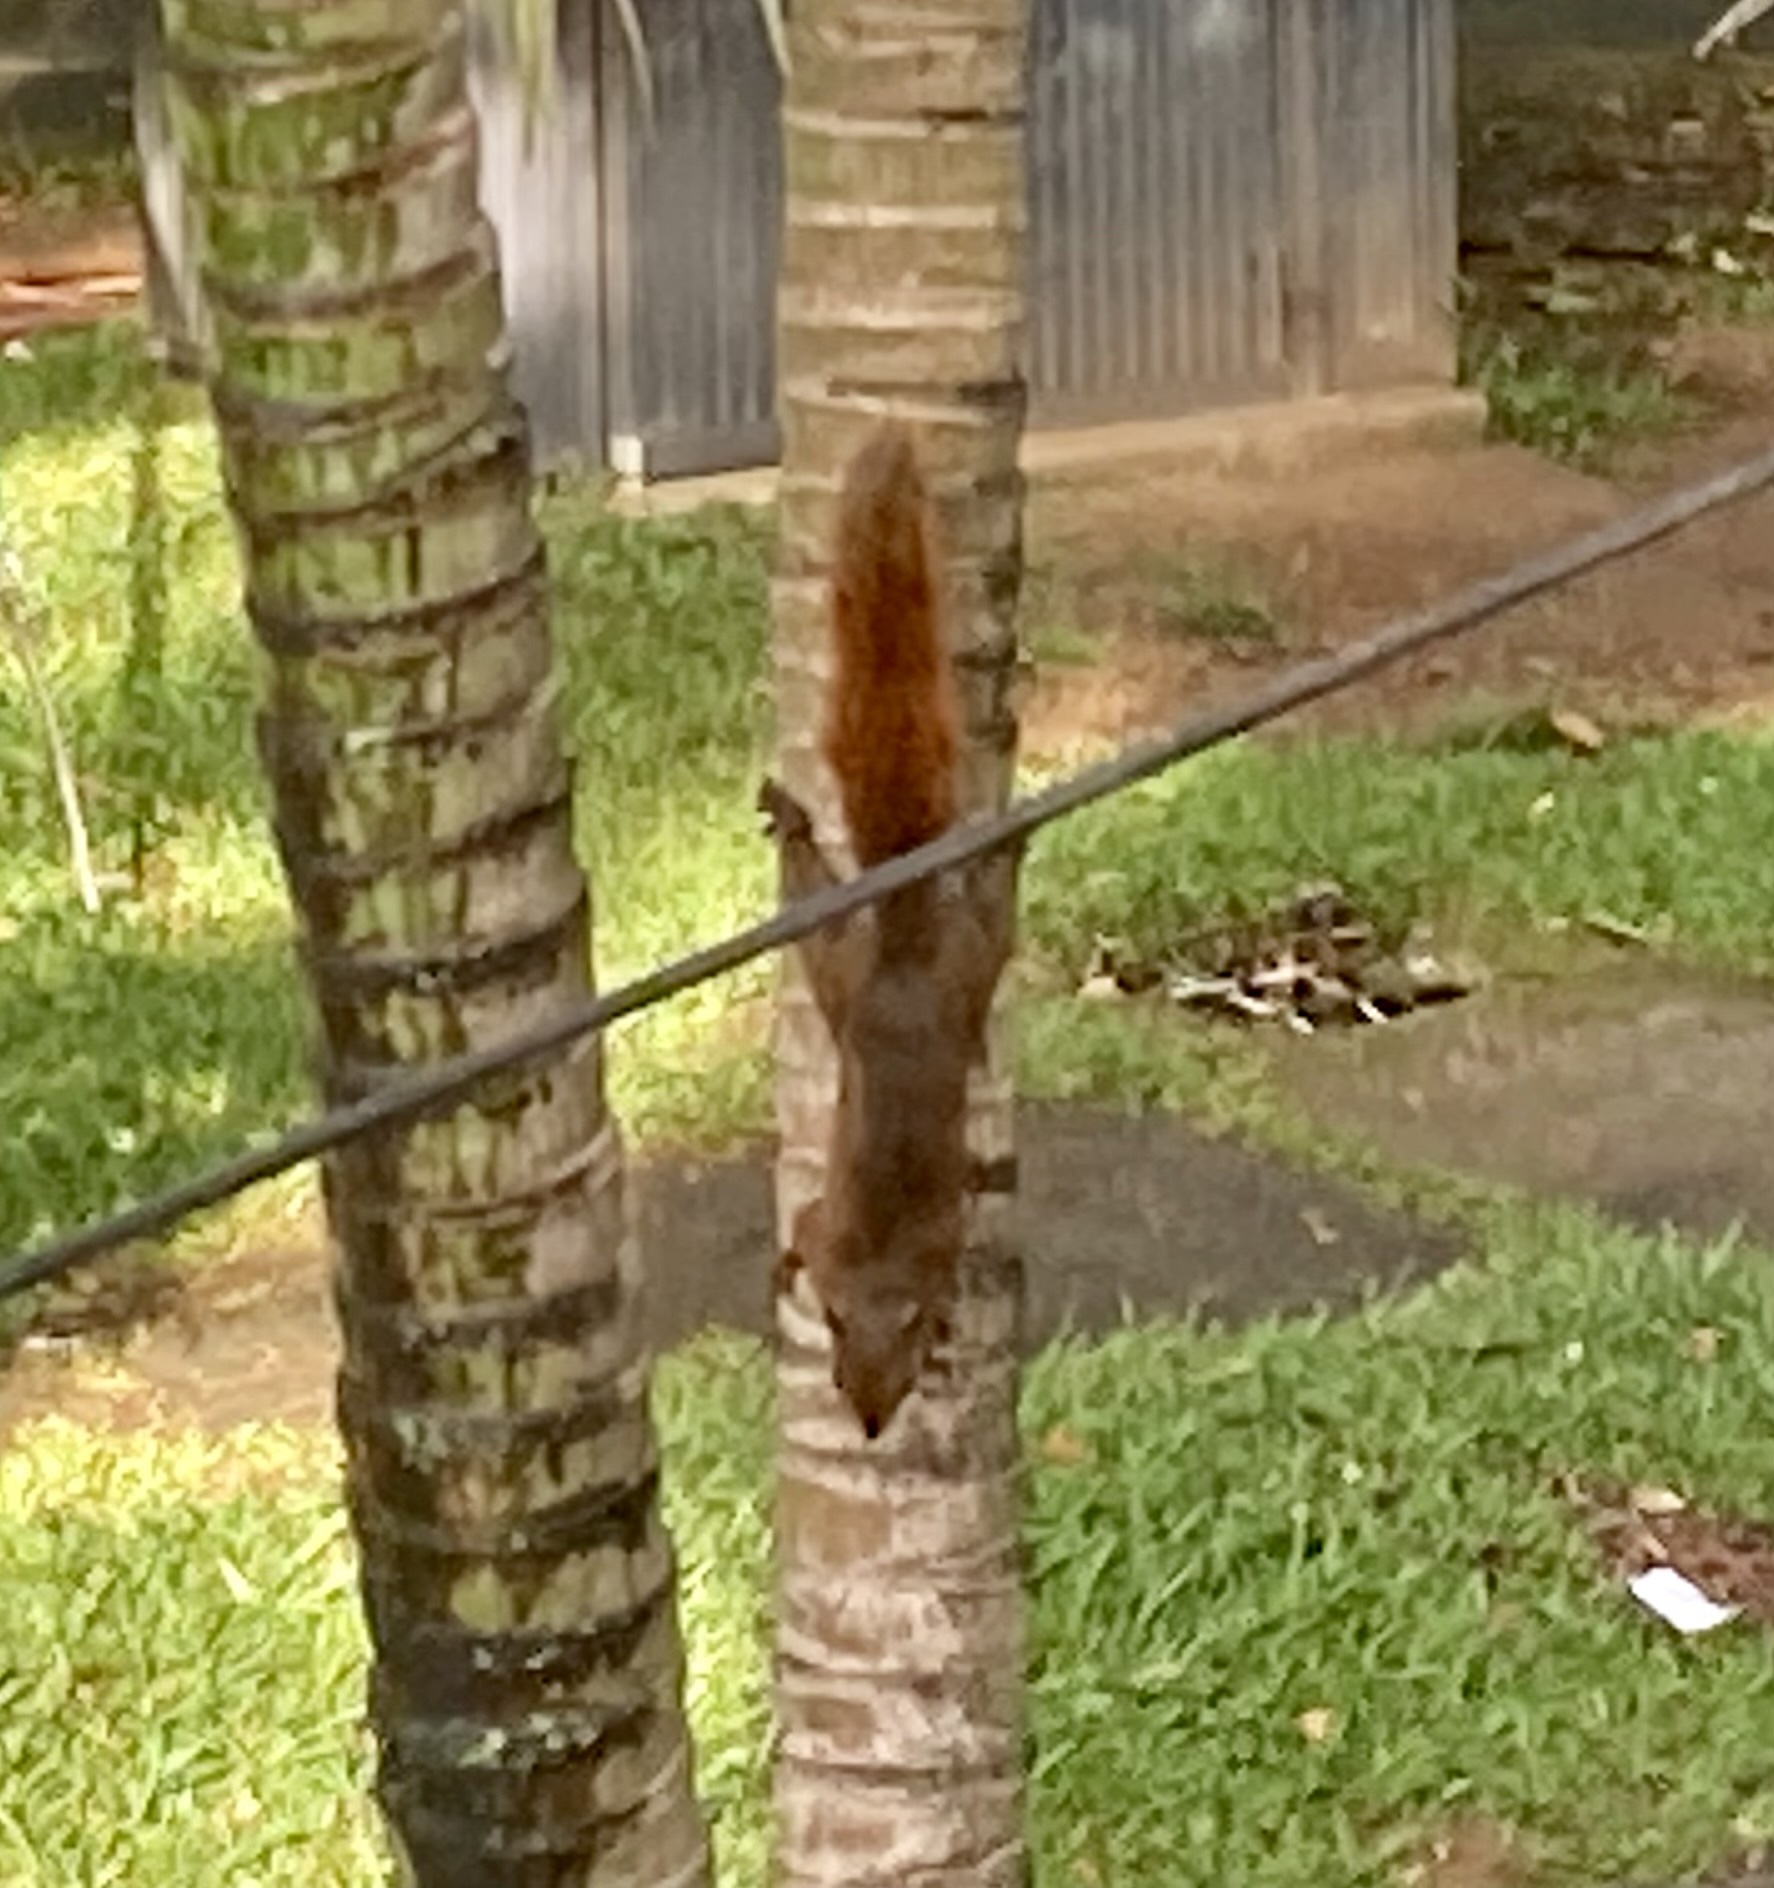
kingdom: Animalia
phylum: Chordata
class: Mammalia
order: Rodentia
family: Sciuridae
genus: Sciurus
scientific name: Sciurus granatensis
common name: Red-tailed squirrel
